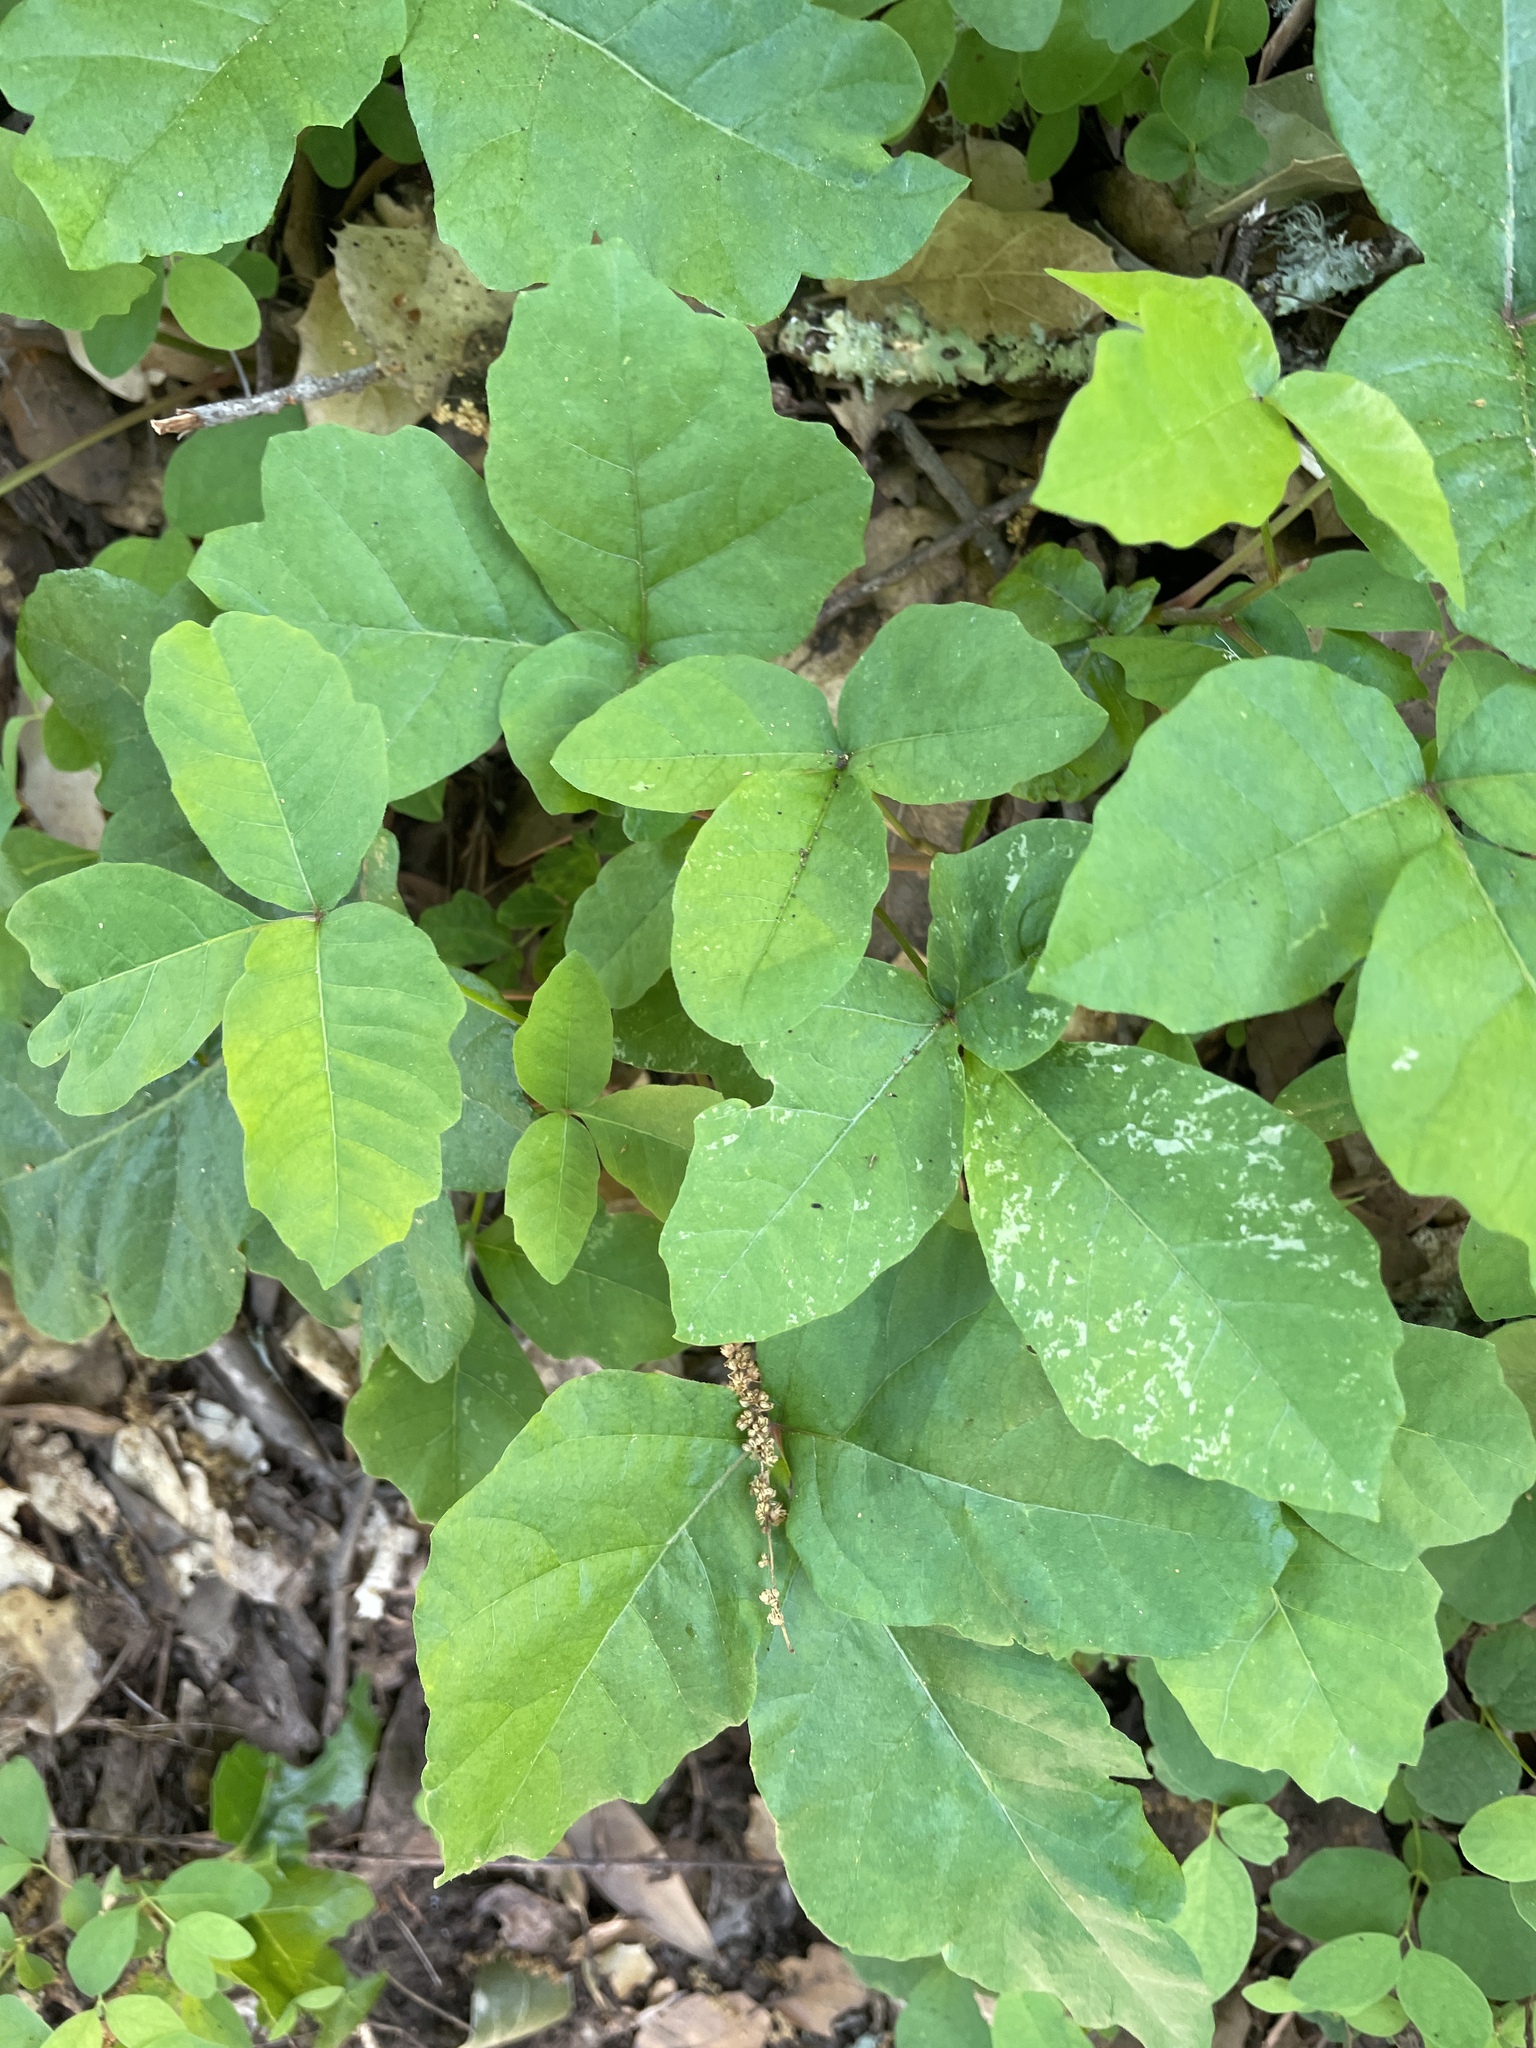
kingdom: Plantae
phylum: Tracheophyta
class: Magnoliopsida
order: Sapindales
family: Anacardiaceae
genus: Toxicodendron
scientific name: Toxicodendron diversilobum
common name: Pacific poison-oak
